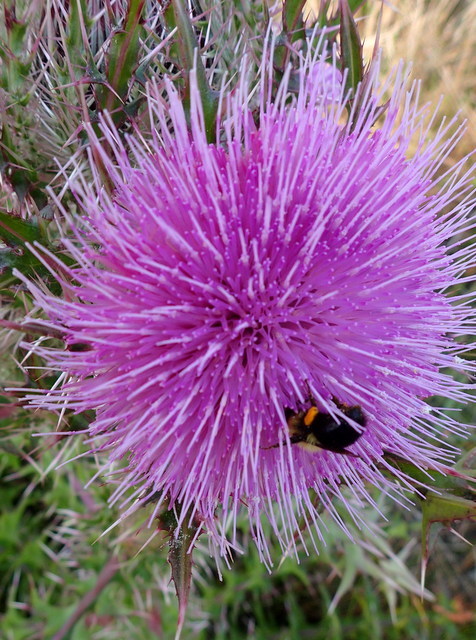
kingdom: Animalia
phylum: Arthropoda
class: Insecta
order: Hymenoptera
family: Apidae
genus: Bombus
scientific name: Bombus griseocollis
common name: Brown-belted bumble bee
